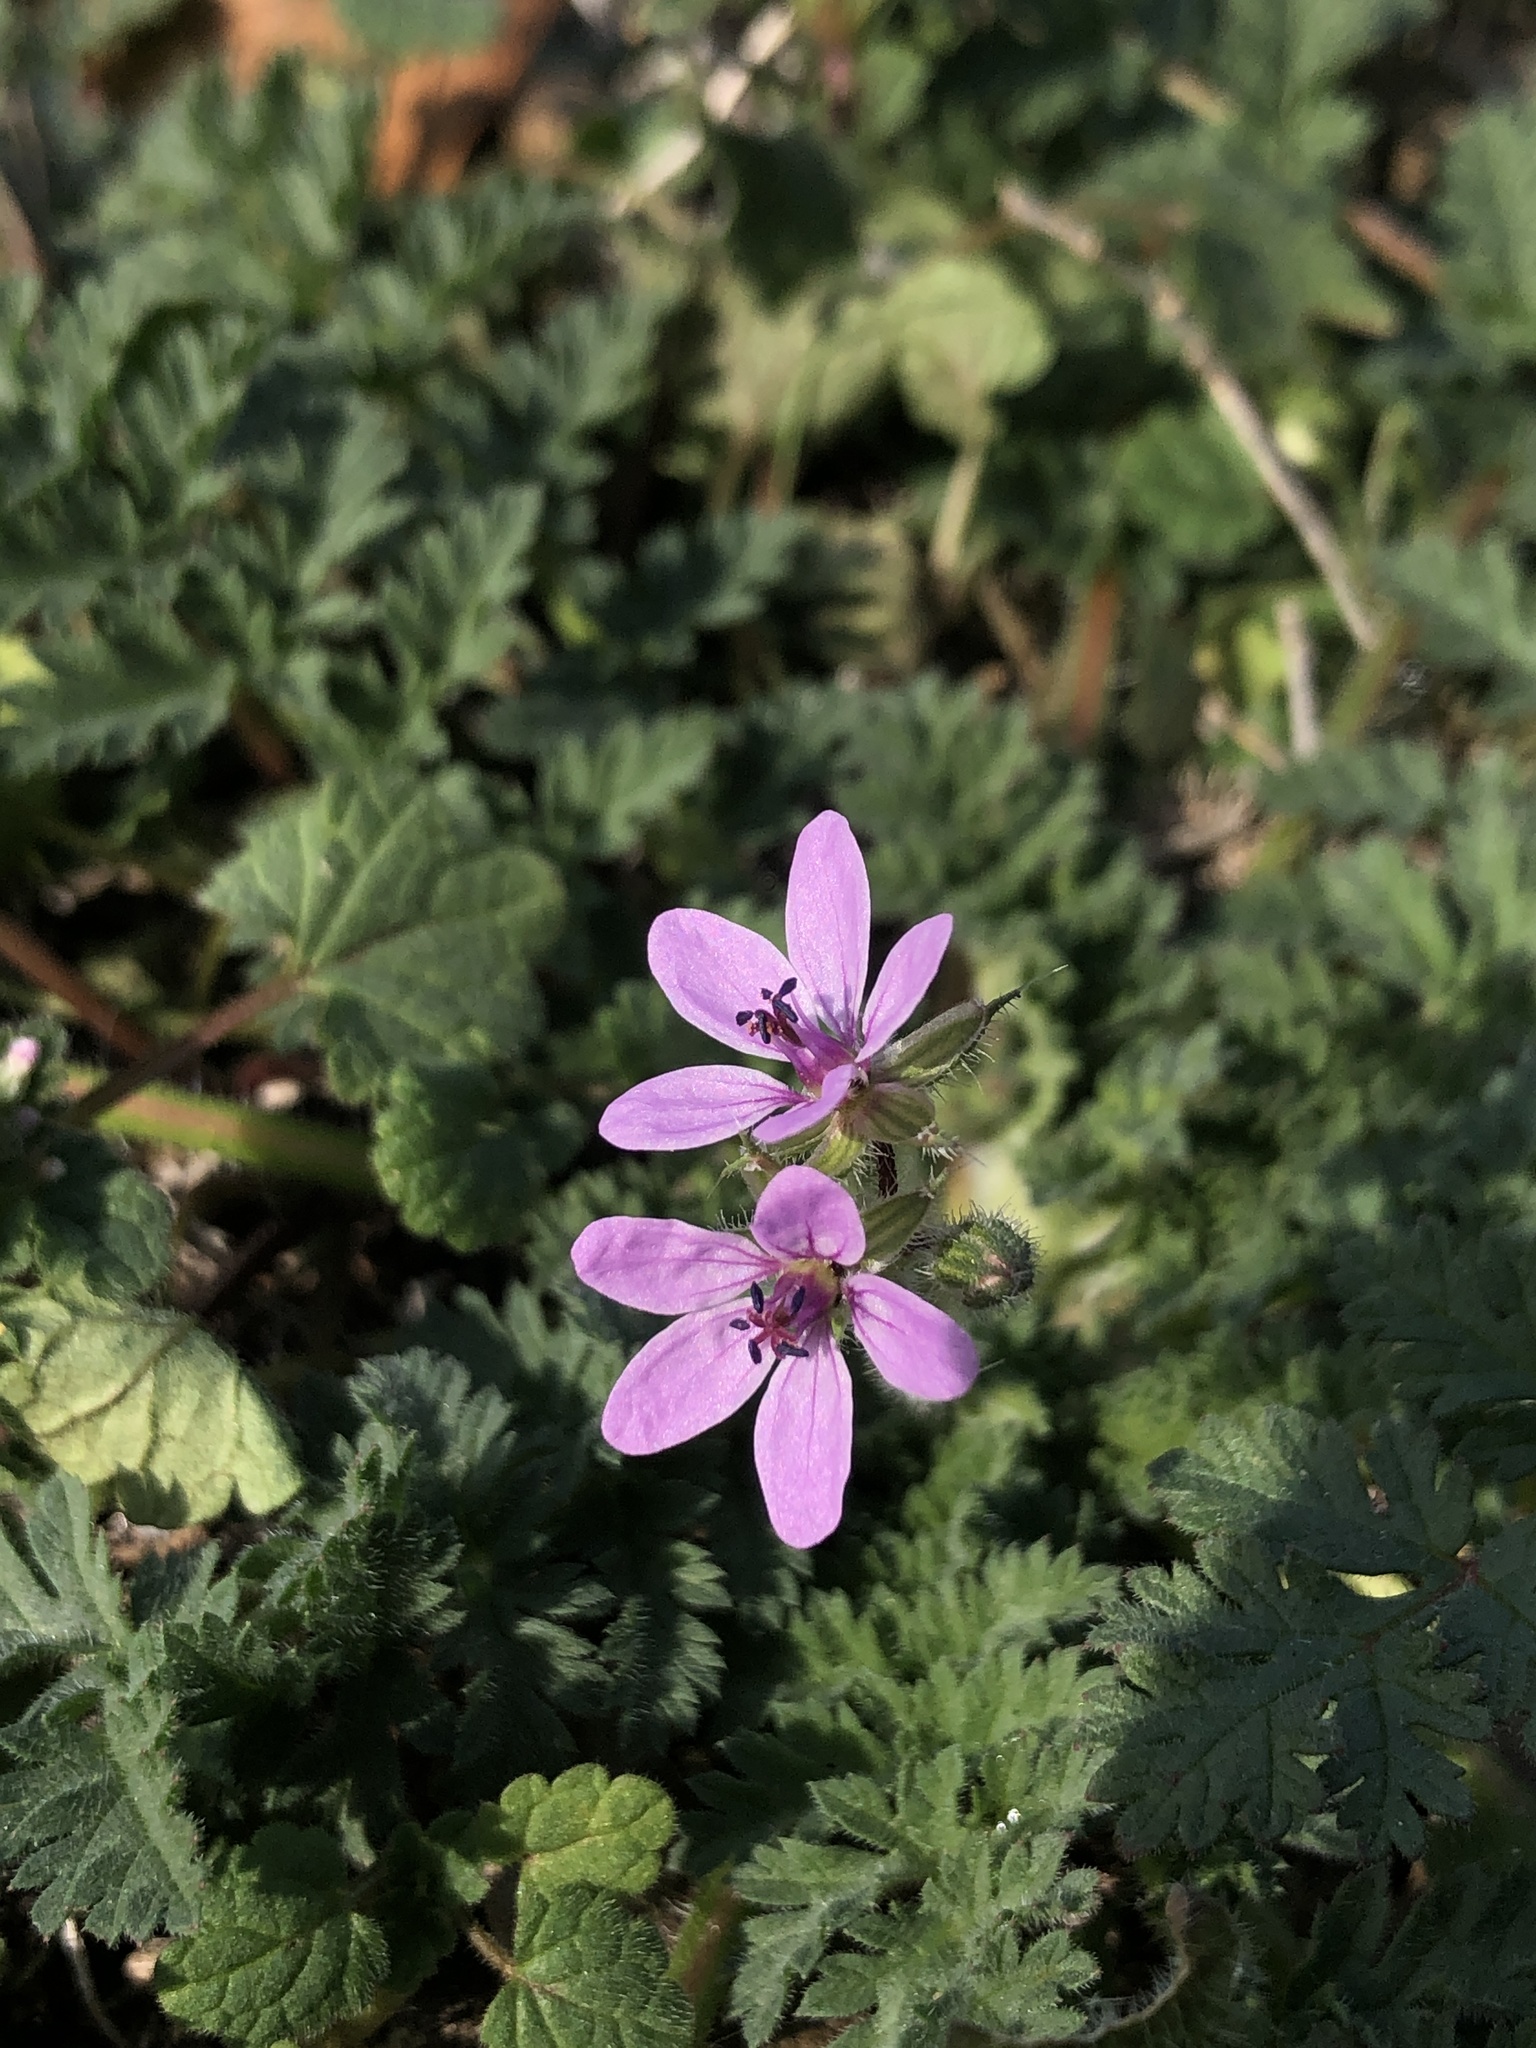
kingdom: Plantae
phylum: Tracheophyta
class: Magnoliopsida
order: Geraniales
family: Geraniaceae
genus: Erodium
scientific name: Erodium cicutarium
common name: Common stork's-bill
